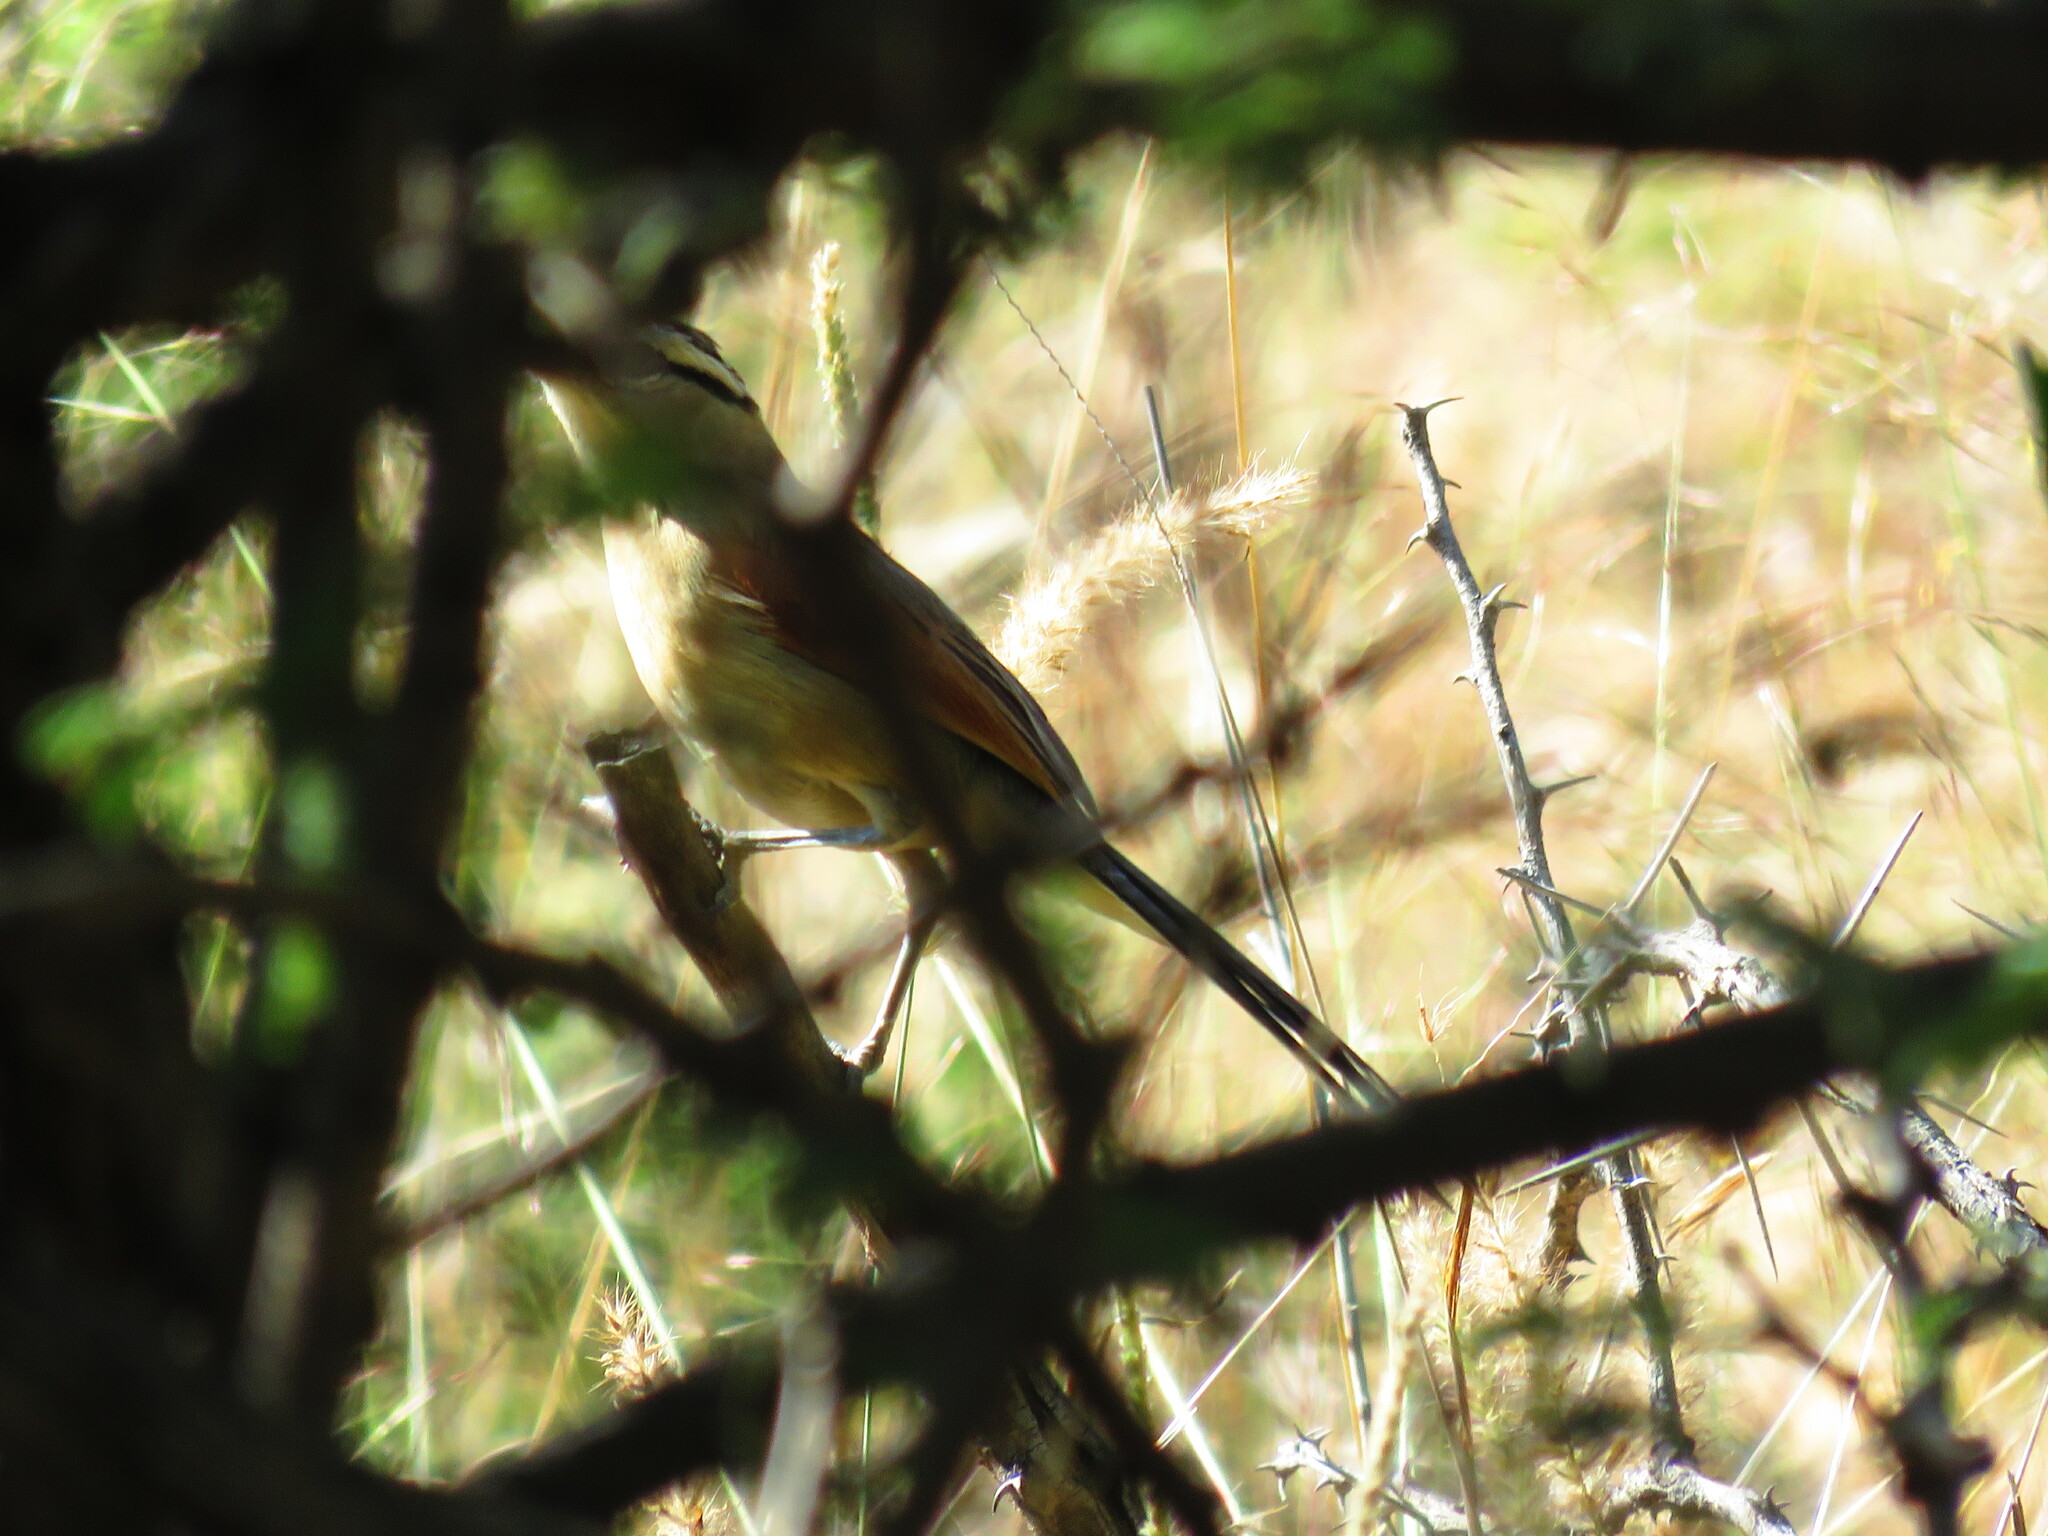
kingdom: Animalia
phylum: Chordata
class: Aves
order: Passeriformes
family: Malaconotidae
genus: Tchagra
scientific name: Tchagra australis
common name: Brown-crowned tchagra
